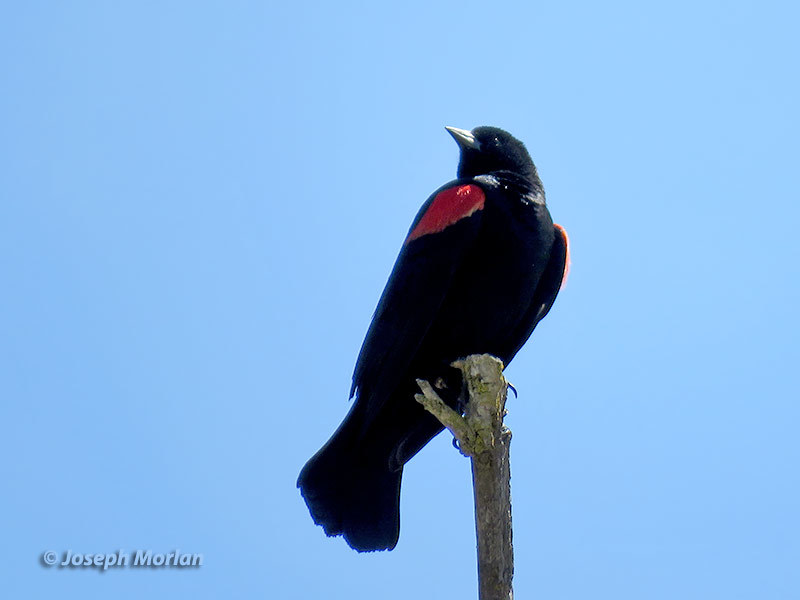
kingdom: Animalia
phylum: Chordata
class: Aves
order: Passeriformes
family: Icteridae
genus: Agelaius
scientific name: Agelaius phoeniceus
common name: Red-winged blackbird
